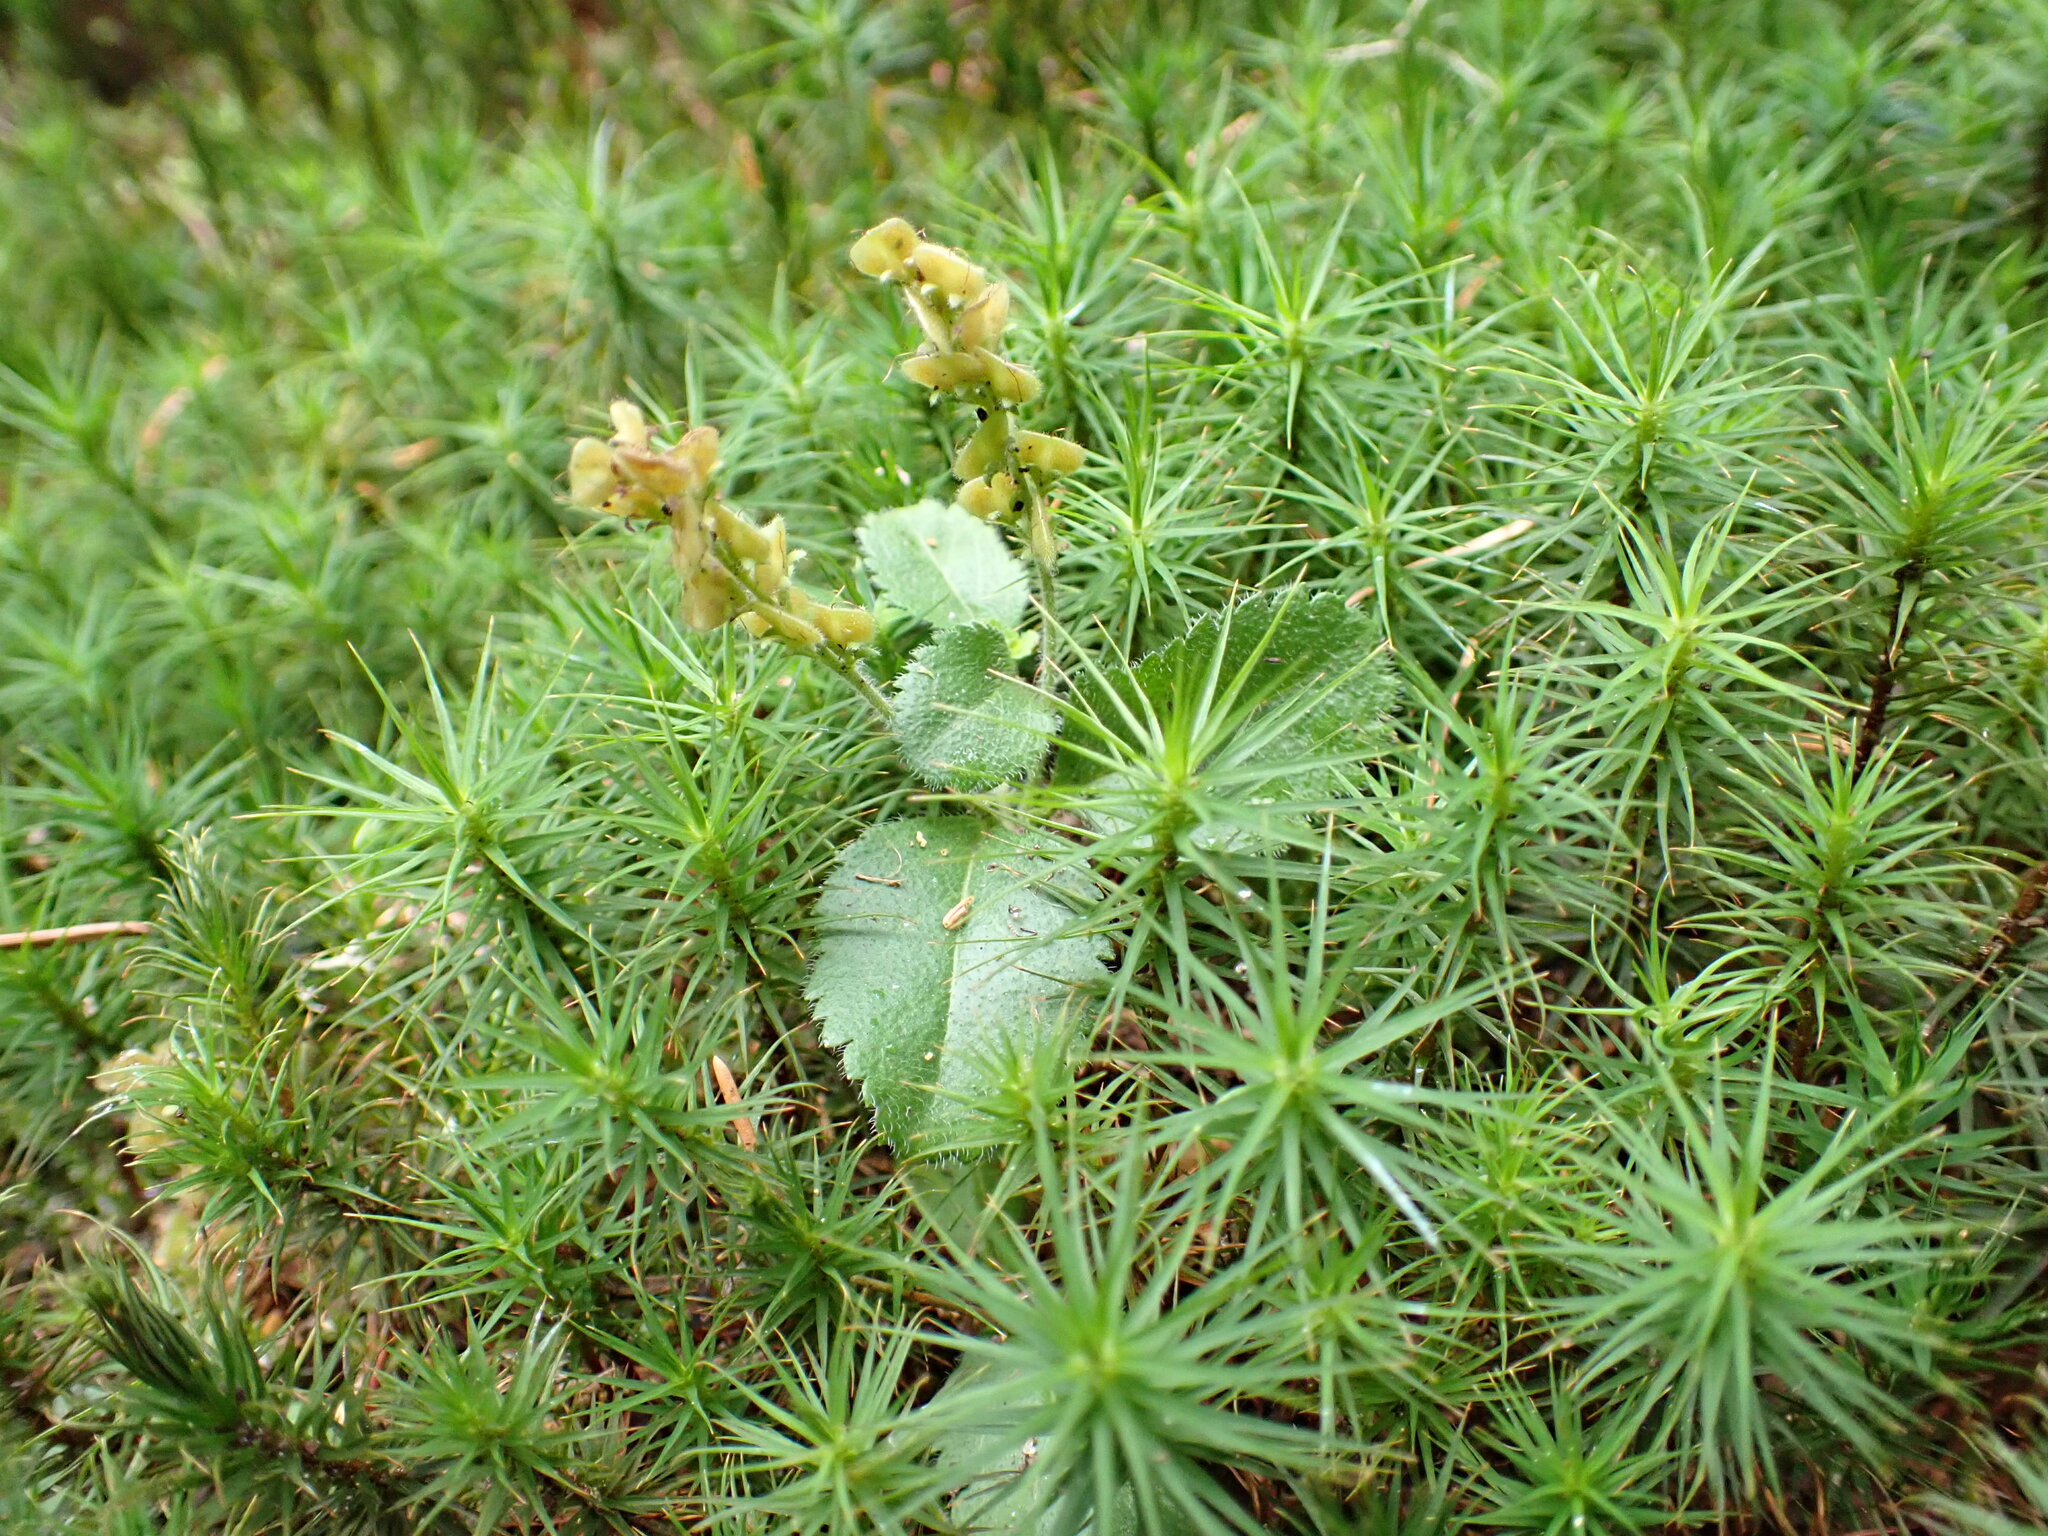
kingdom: Plantae
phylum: Tracheophyta
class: Magnoliopsida
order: Lamiales
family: Plantaginaceae
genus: Veronica
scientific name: Veronica officinalis
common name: Common speedwell
